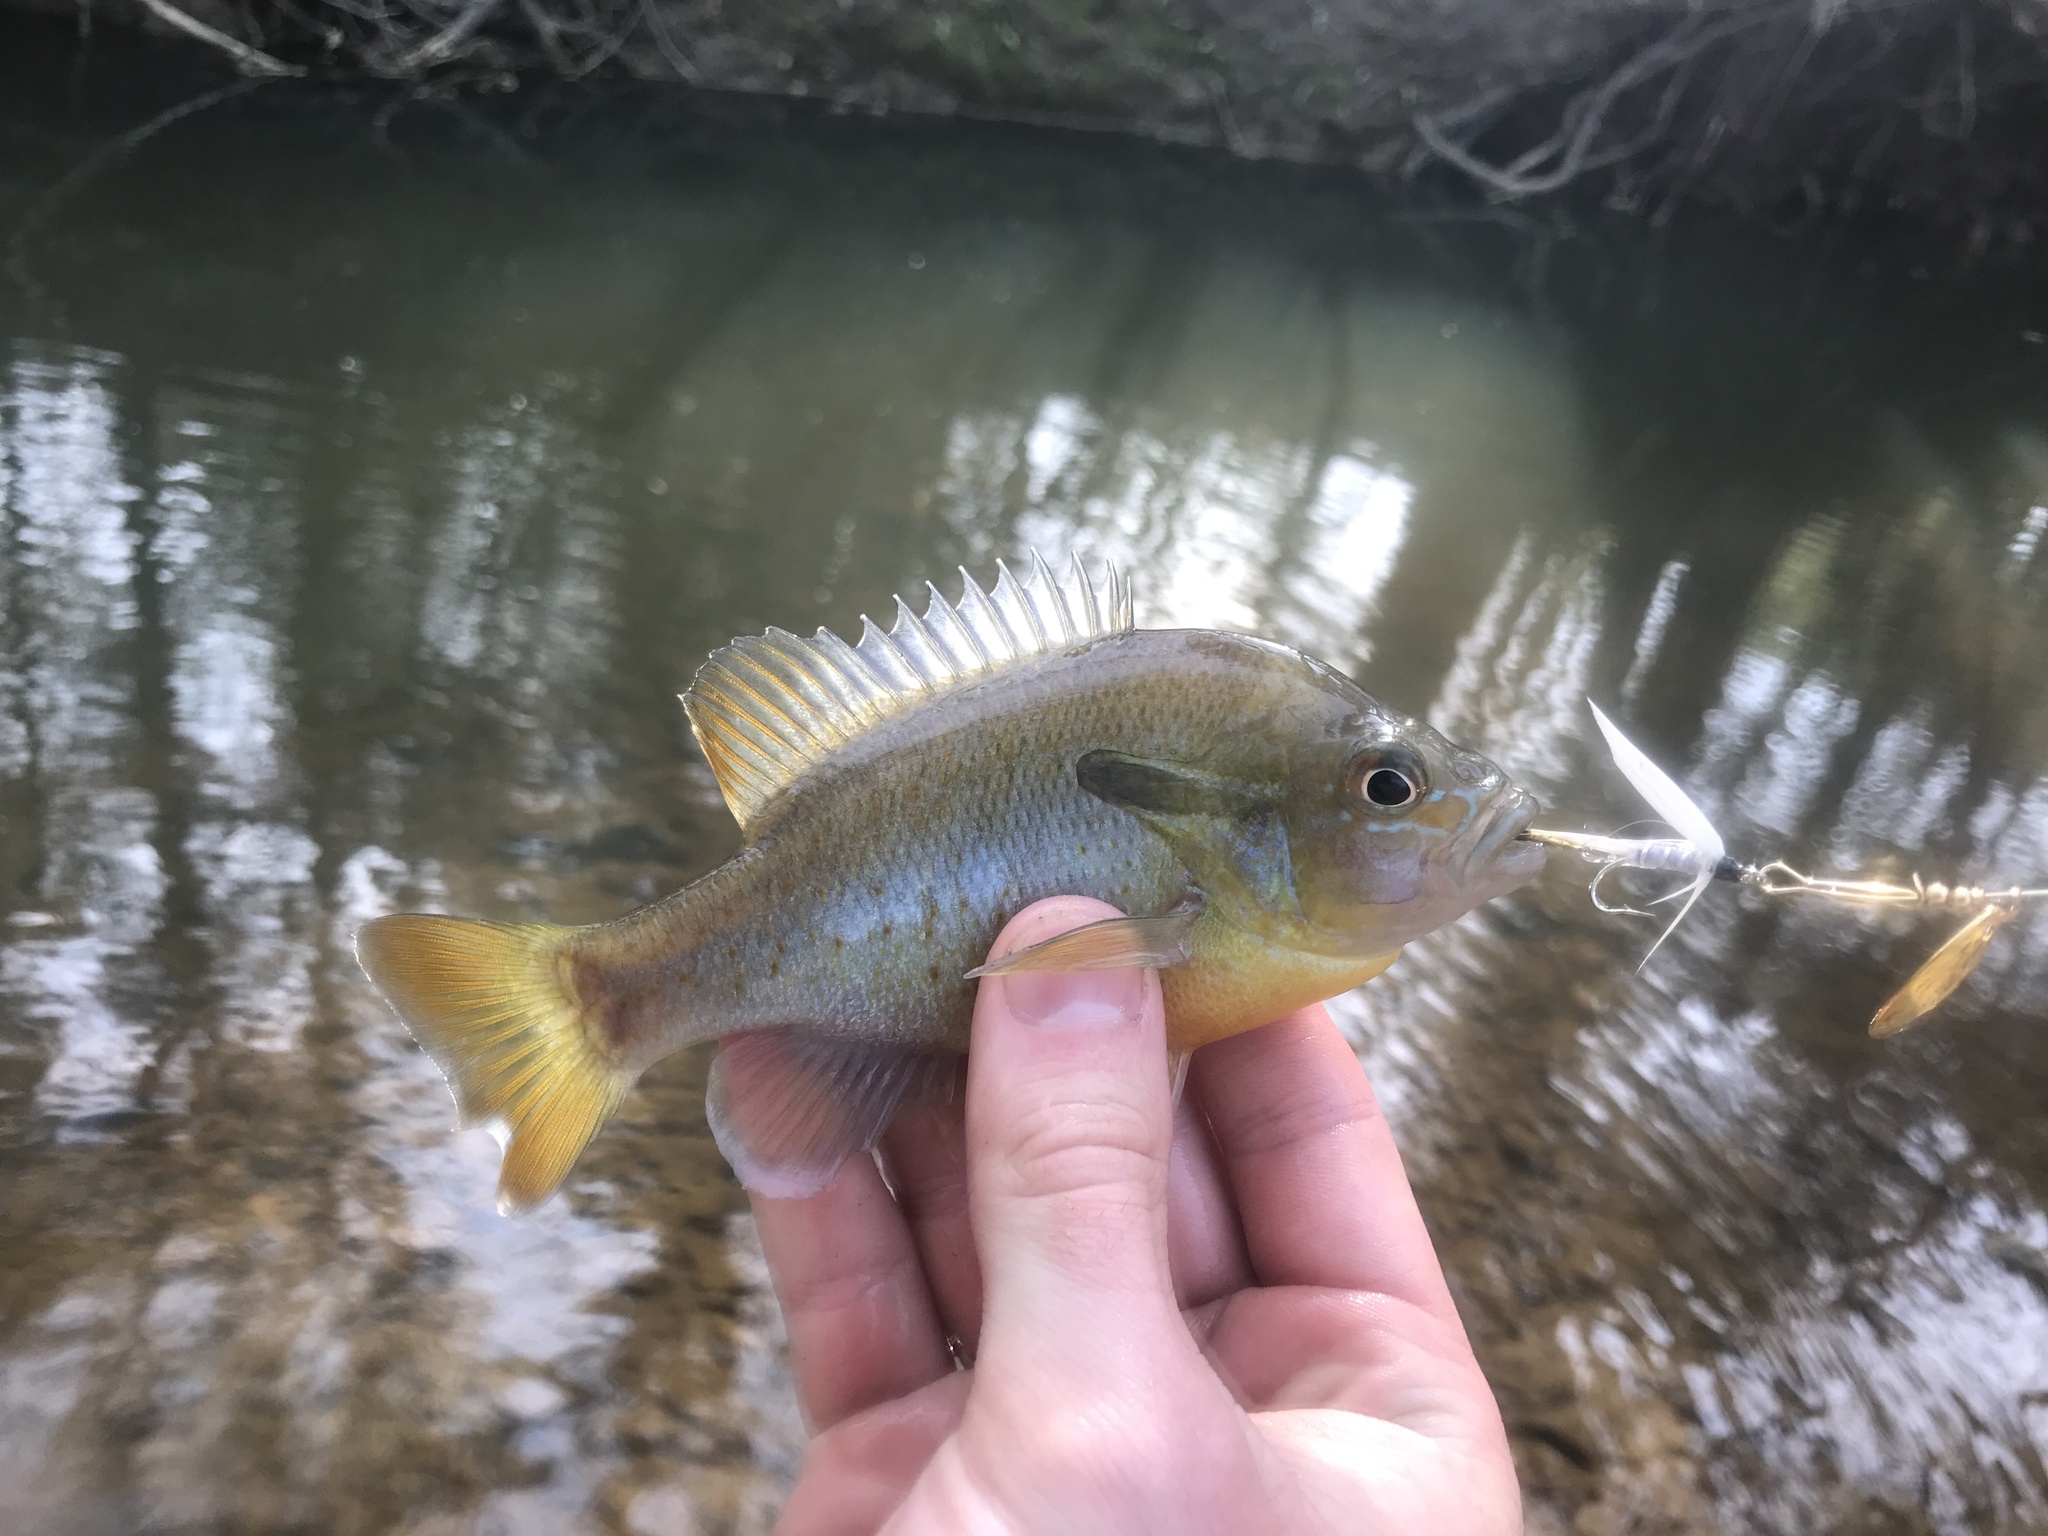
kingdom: Animalia
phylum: Chordata
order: Perciformes
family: Centrarchidae
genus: Lepomis
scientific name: Lepomis auritus
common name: Redbreast sunfish
